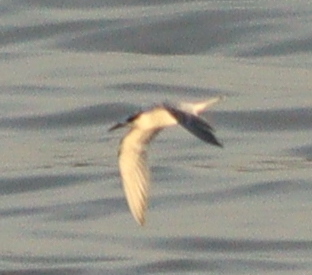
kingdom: Animalia
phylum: Chordata
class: Aves
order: Charadriiformes
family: Laridae
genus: Thalasseus
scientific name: Thalasseus sandvicensis
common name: Sandwich tern
